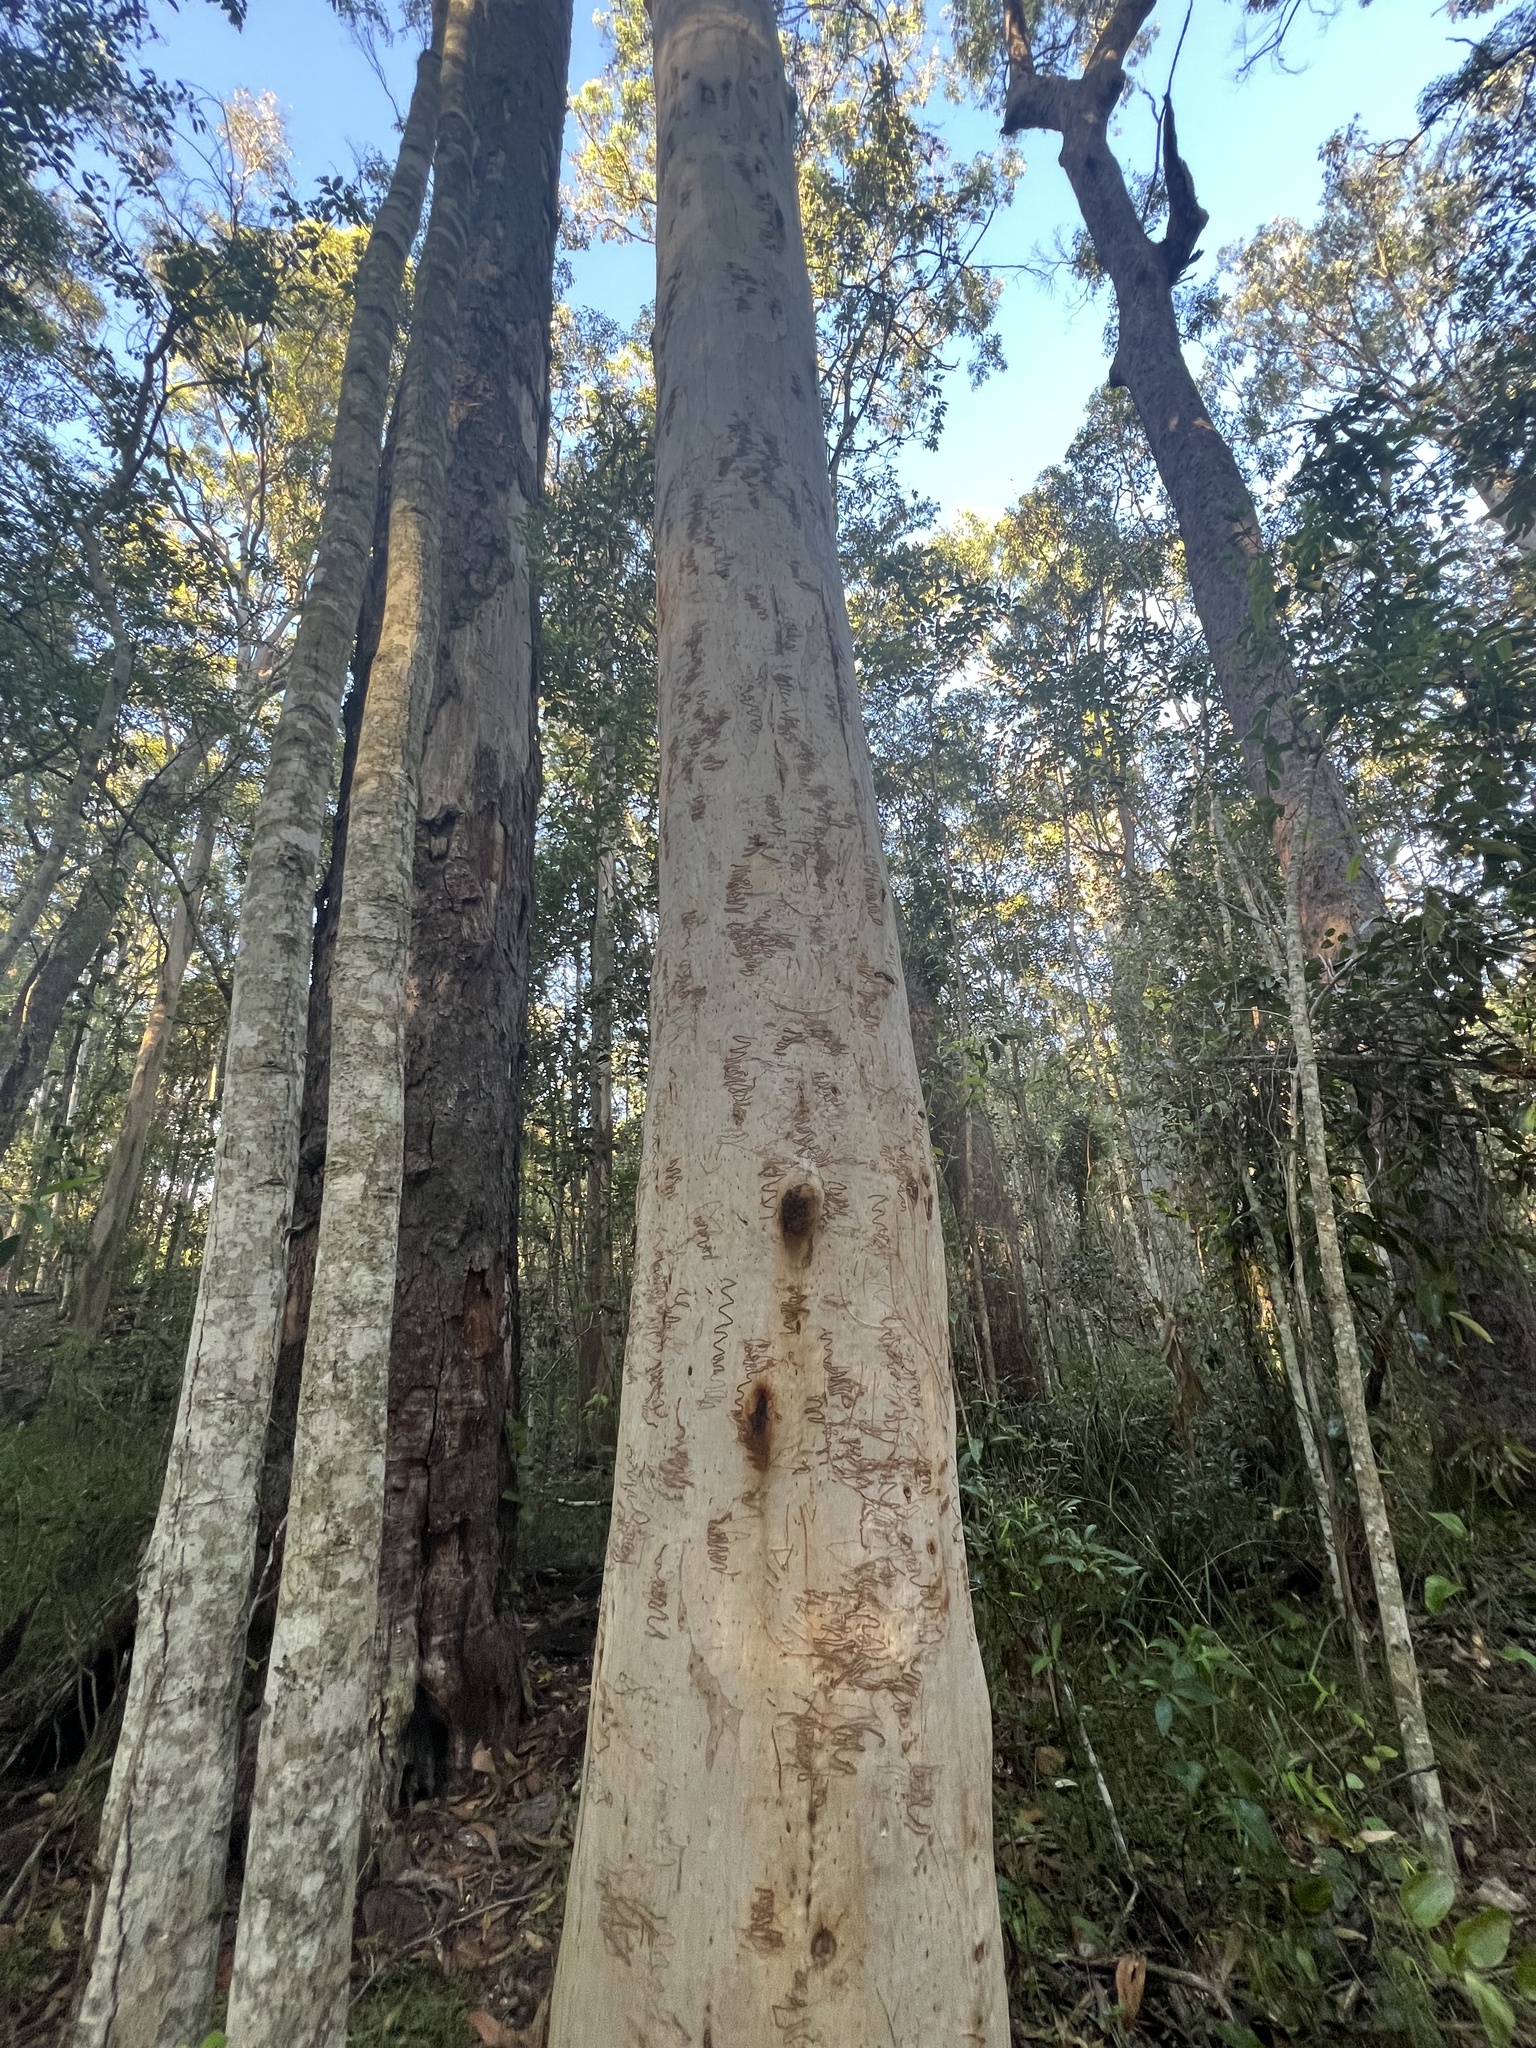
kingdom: Plantae
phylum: Tracheophyta
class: Magnoliopsida
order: Myrtales
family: Myrtaceae
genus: Eucalyptus
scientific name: Eucalyptus racemosa
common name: Scribbly gum
